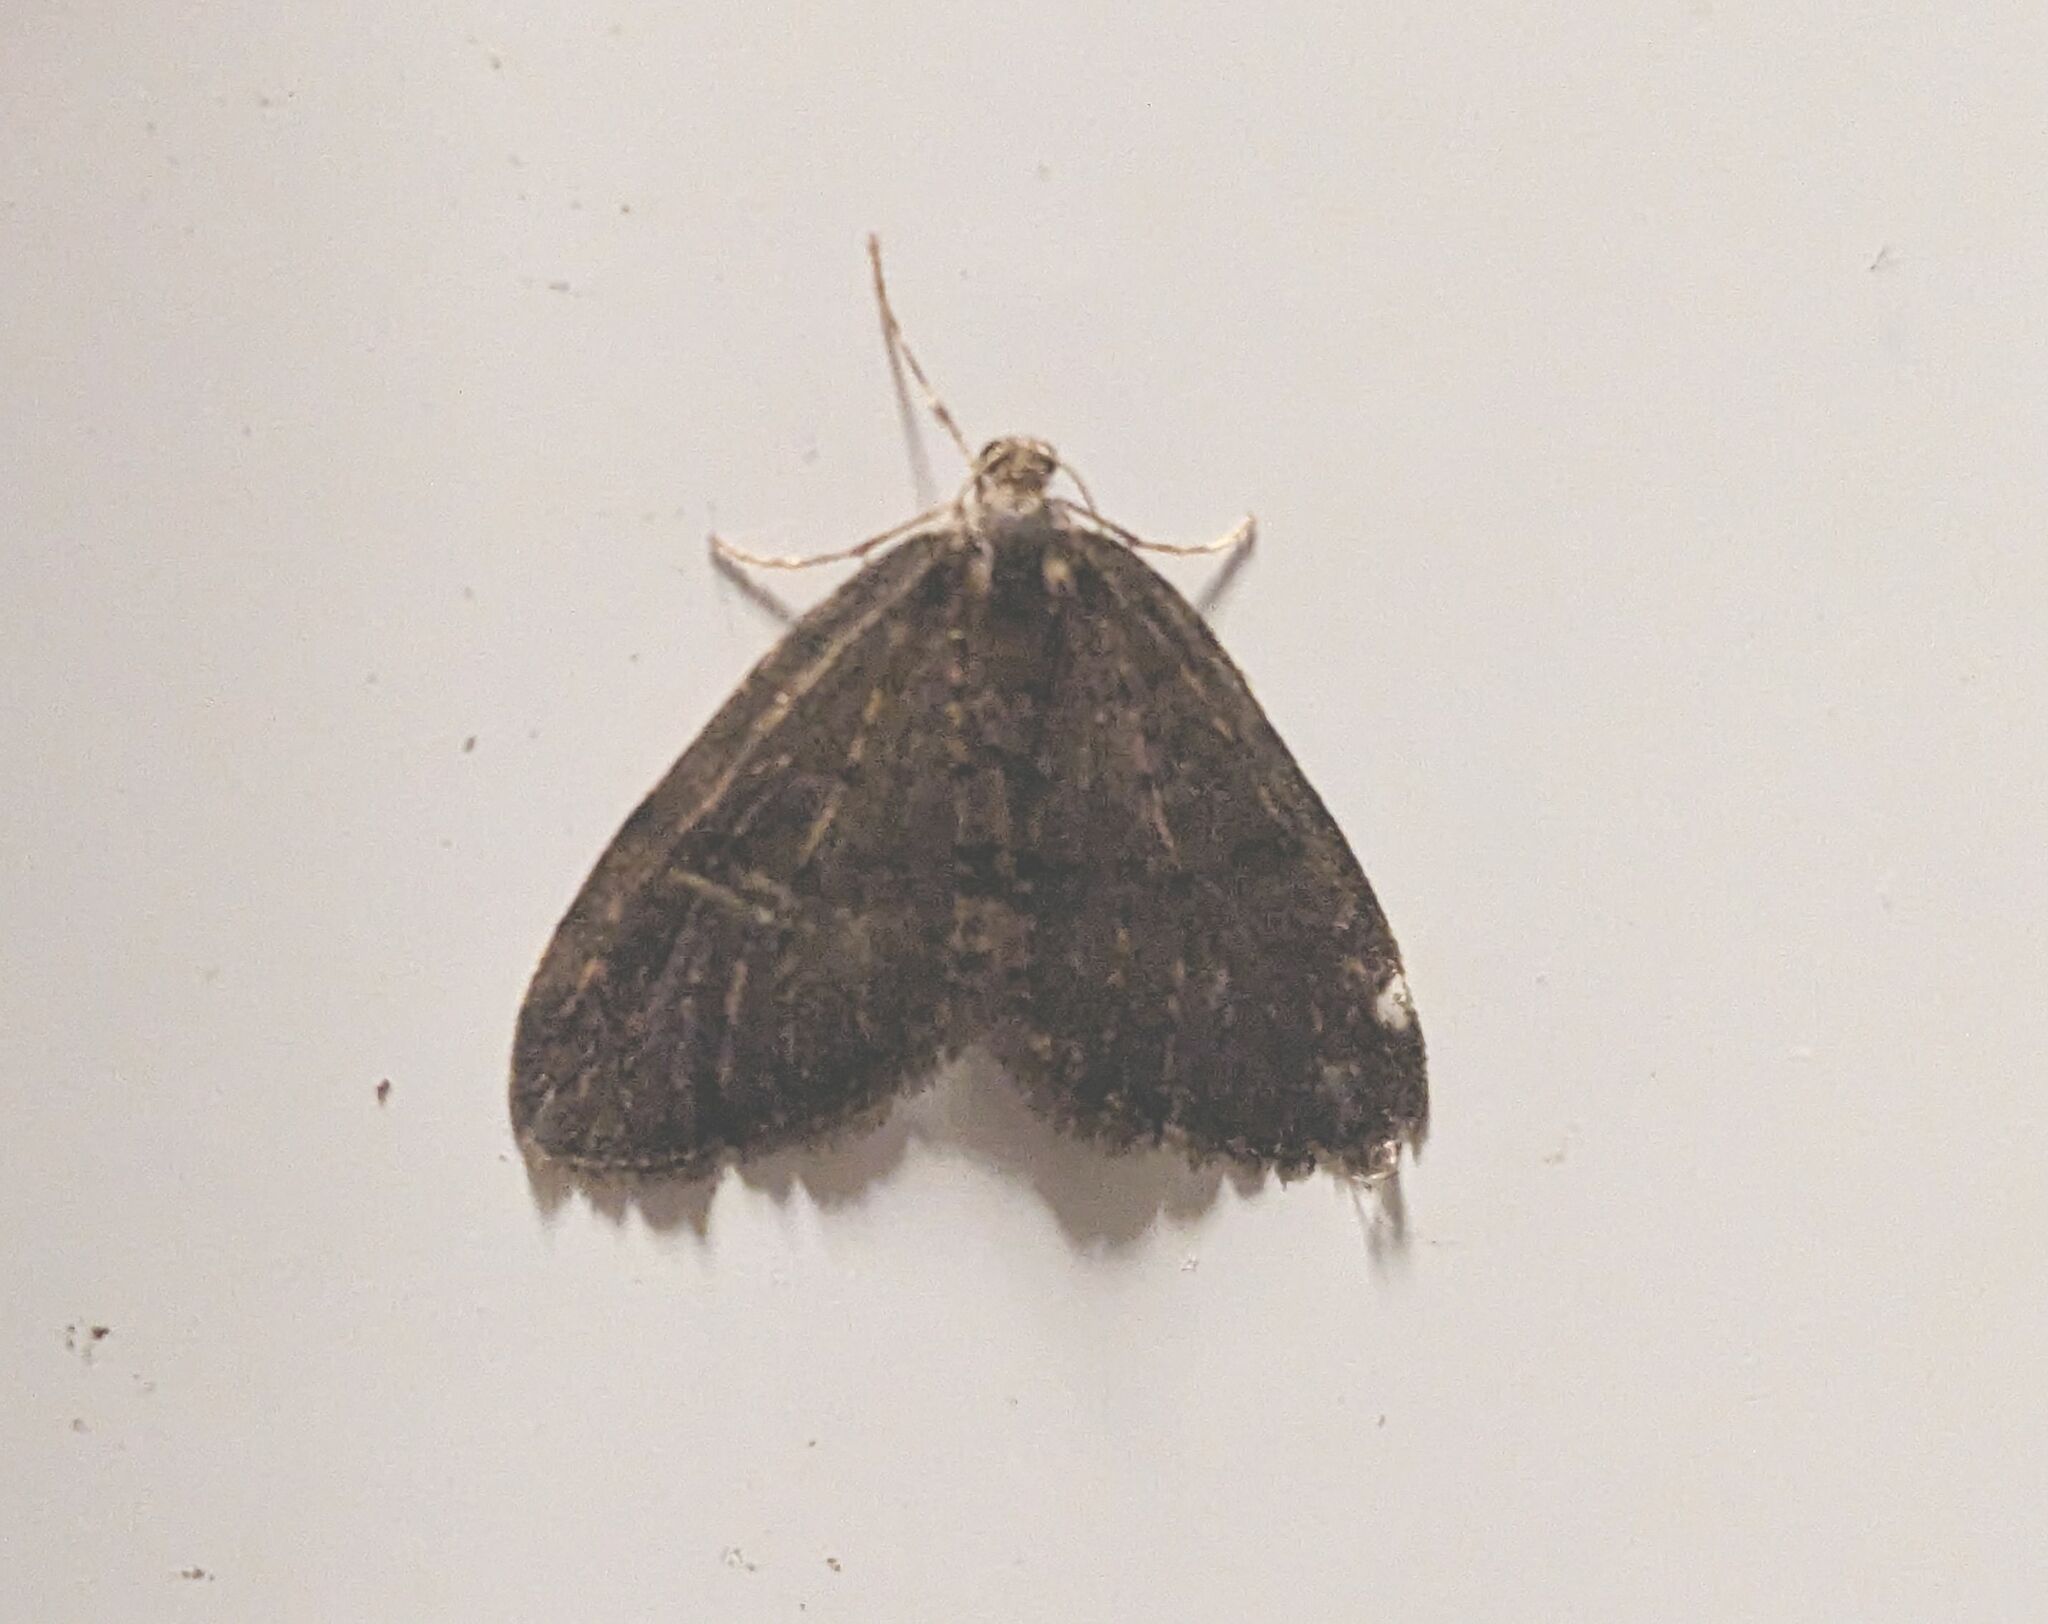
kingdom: Animalia
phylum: Arthropoda
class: Insecta
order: Lepidoptera
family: Geometridae
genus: Operophtera
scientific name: Operophtera brumata
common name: Winter moth
